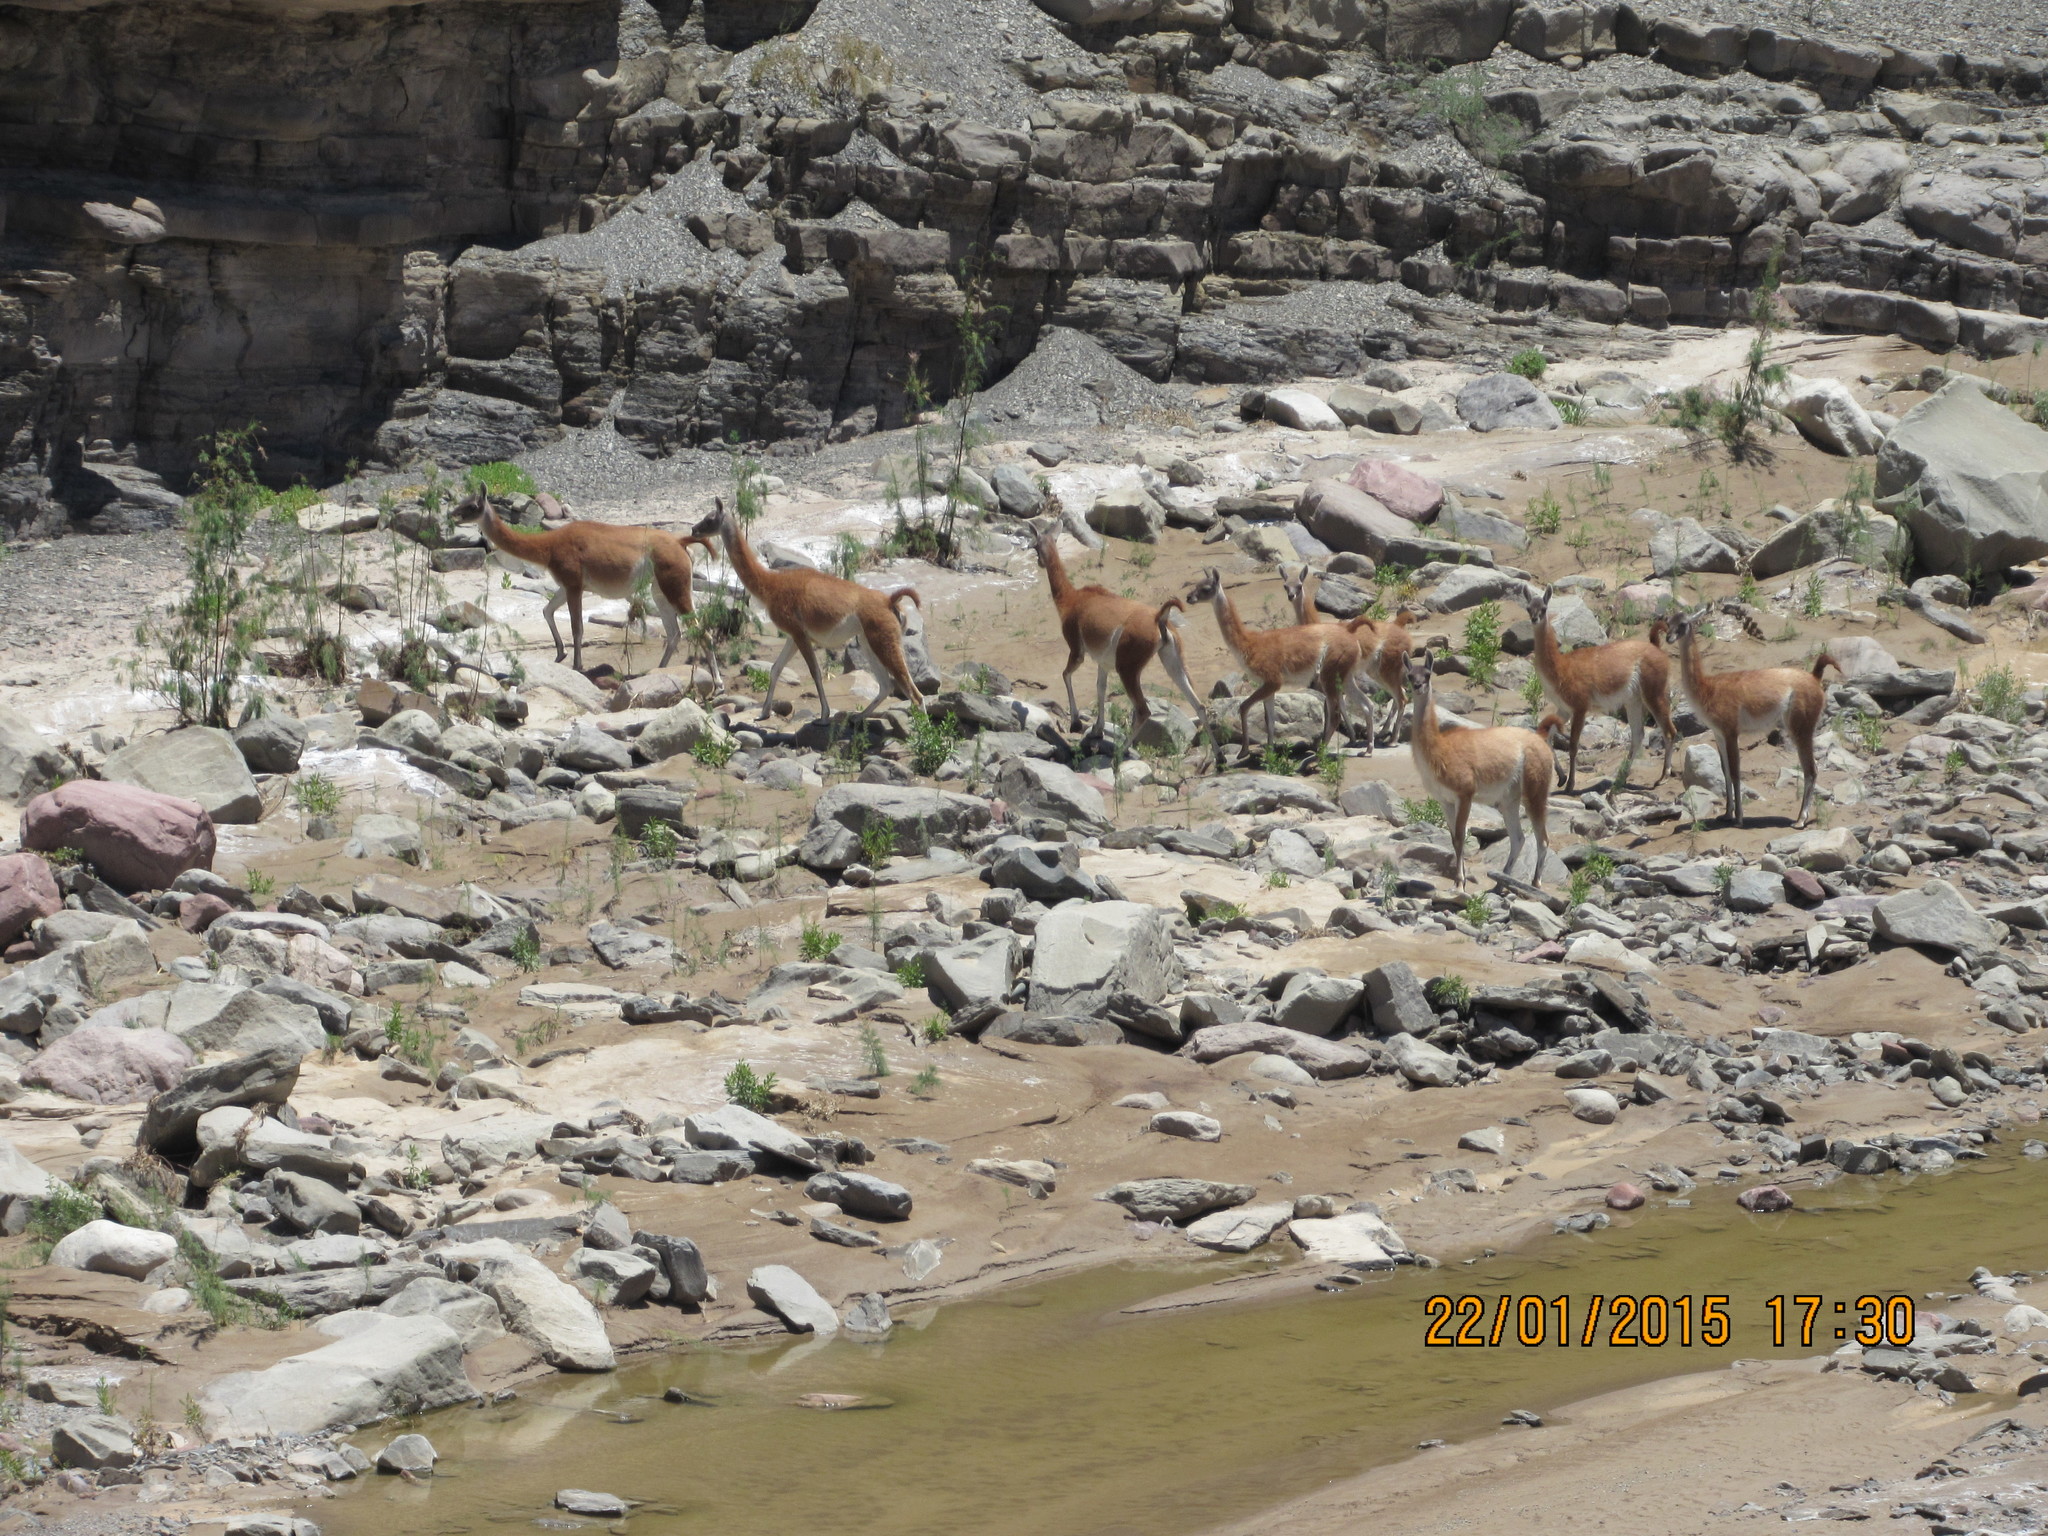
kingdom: Animalia
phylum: Chordata
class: Mammalia
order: Artiodactyla
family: Camelidae
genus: Lama
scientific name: Lama glama
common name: Llama
